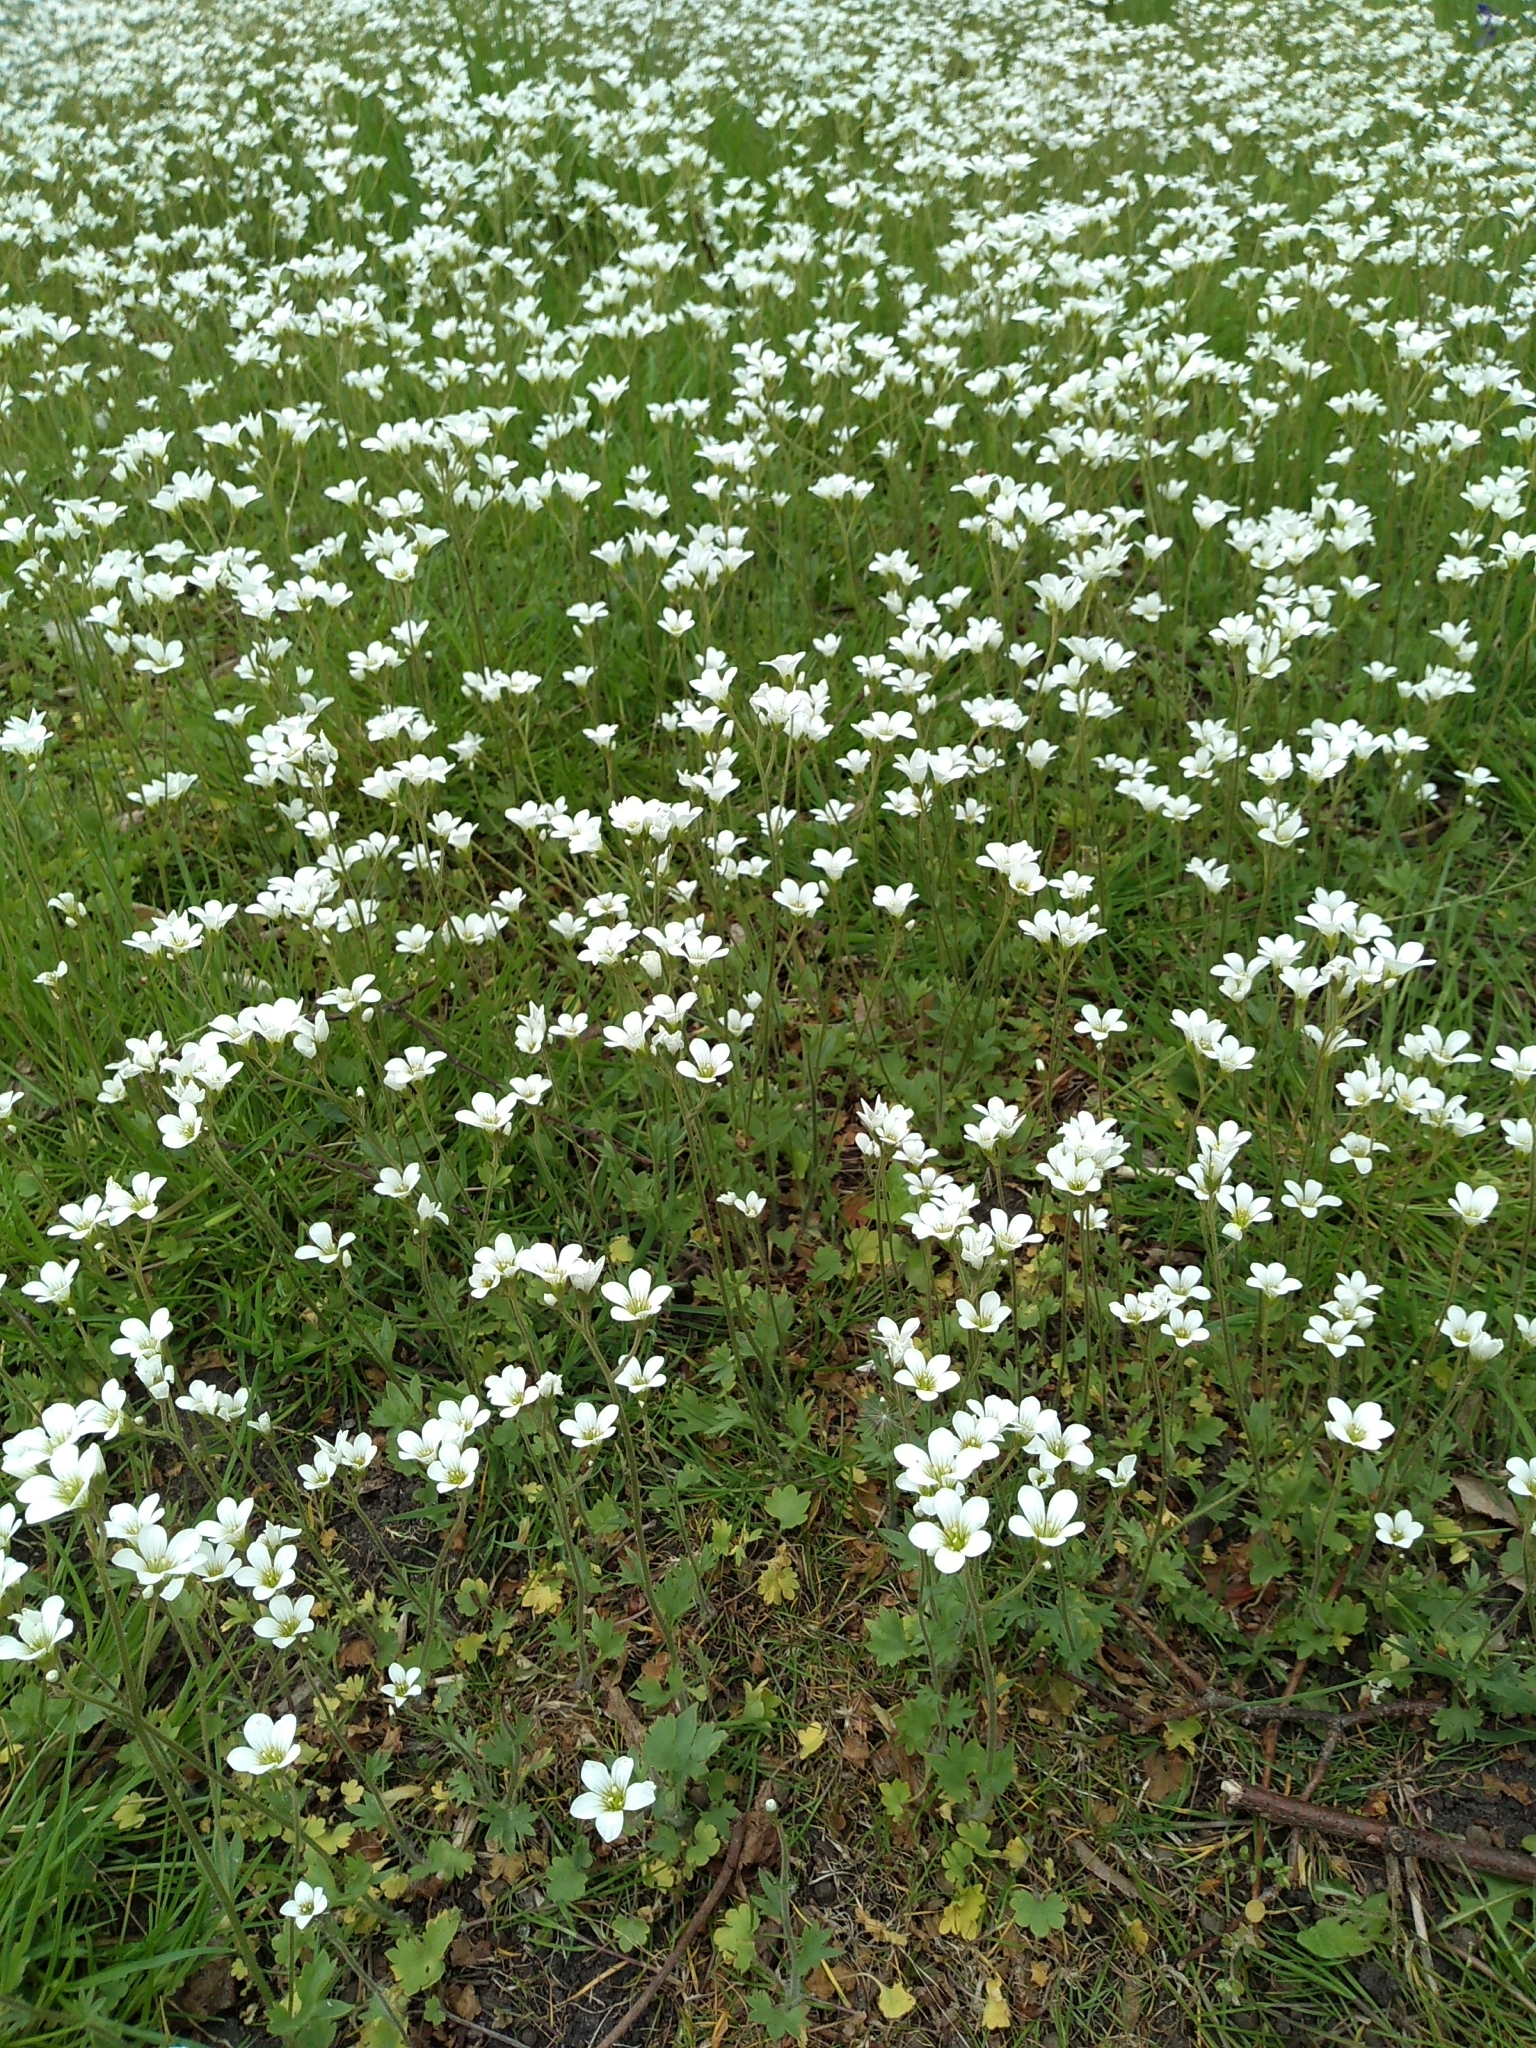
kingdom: Plantae
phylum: Tracheophyta
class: Magnoliopsida
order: Saxifragales
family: Saxifragaceae
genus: Saxifraga
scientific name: Saxifraga granulata
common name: Meadow saxifrage
